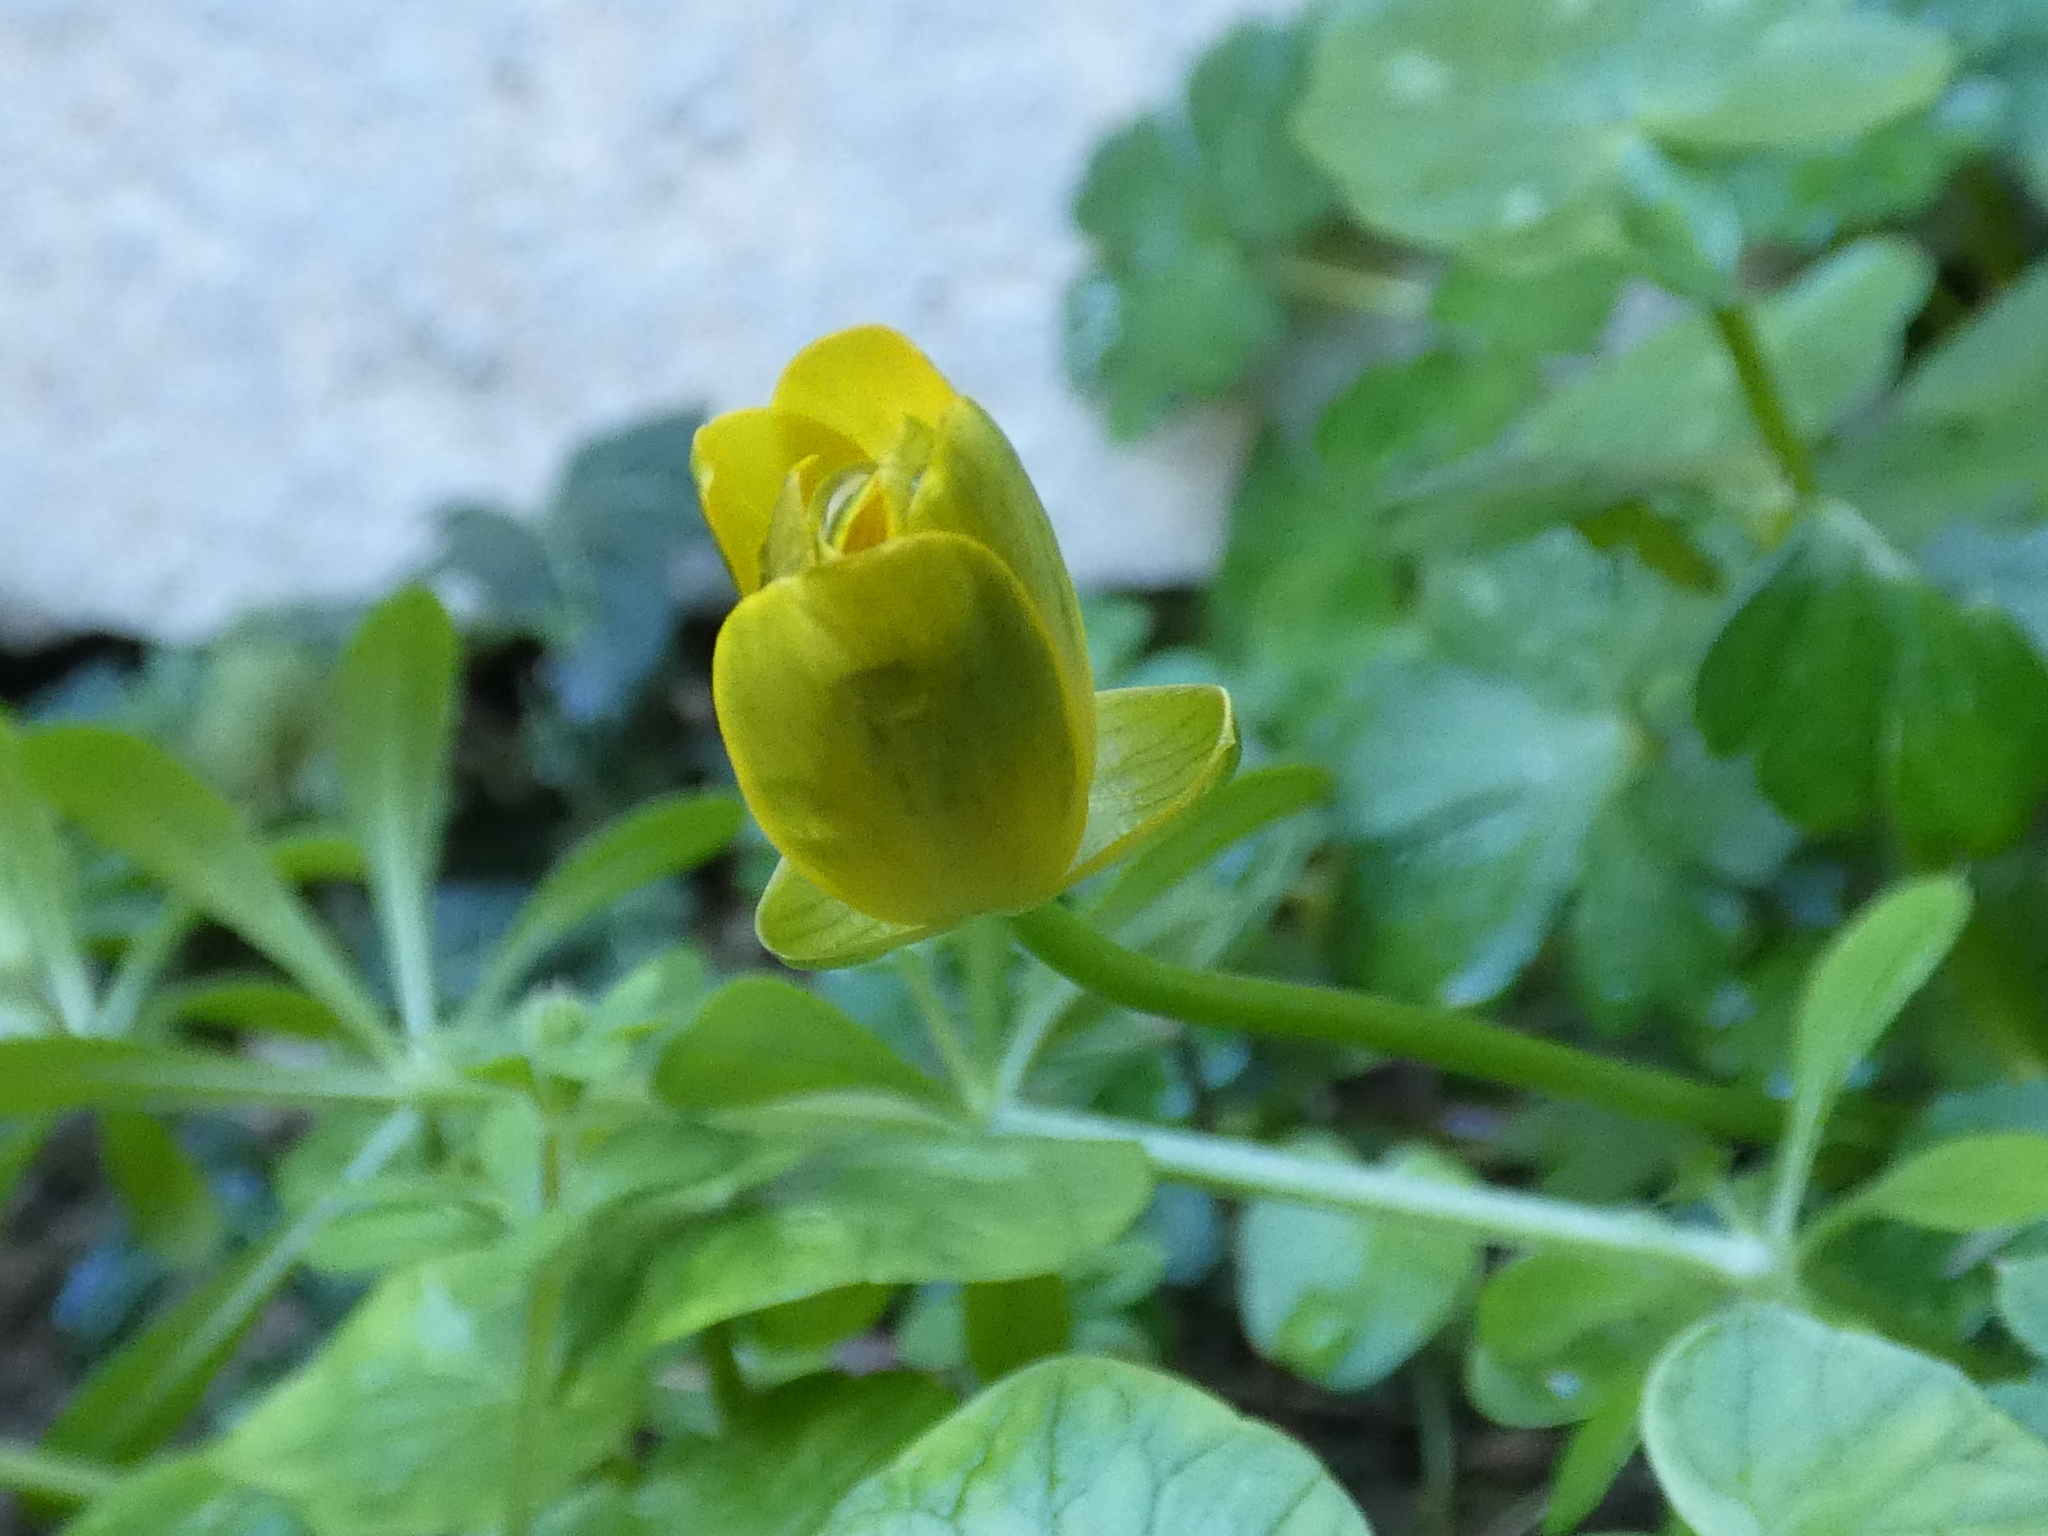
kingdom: Plantae
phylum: Tracheophyta
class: Magnoliopsida
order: Ranunculales
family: Ranunculaceae
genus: Ficaria
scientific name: Ficaria verna
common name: Lesser celandine
